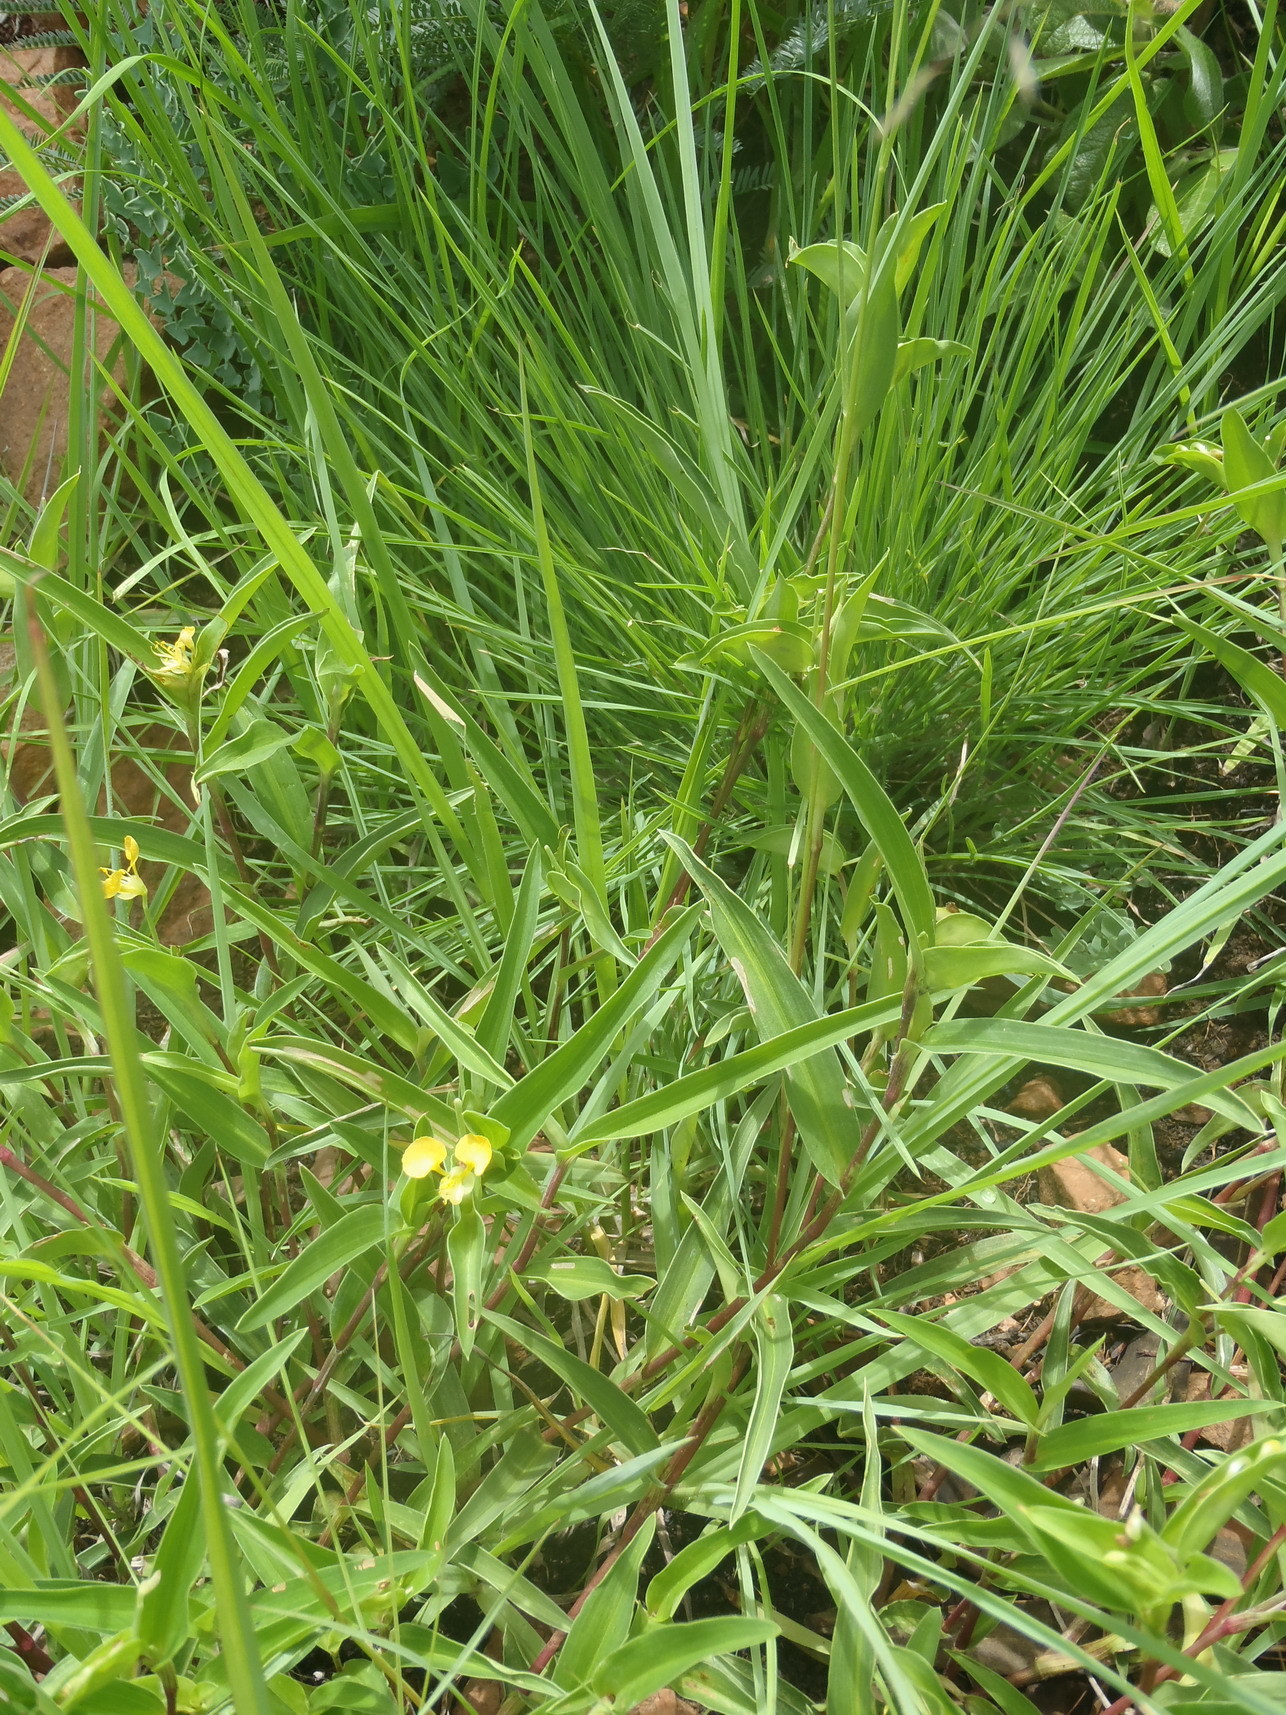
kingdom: Plantae
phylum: Tracheophyta
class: Liliopsida
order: Commelinales
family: Commelinaceae
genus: Commelina
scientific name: Commelina africana
